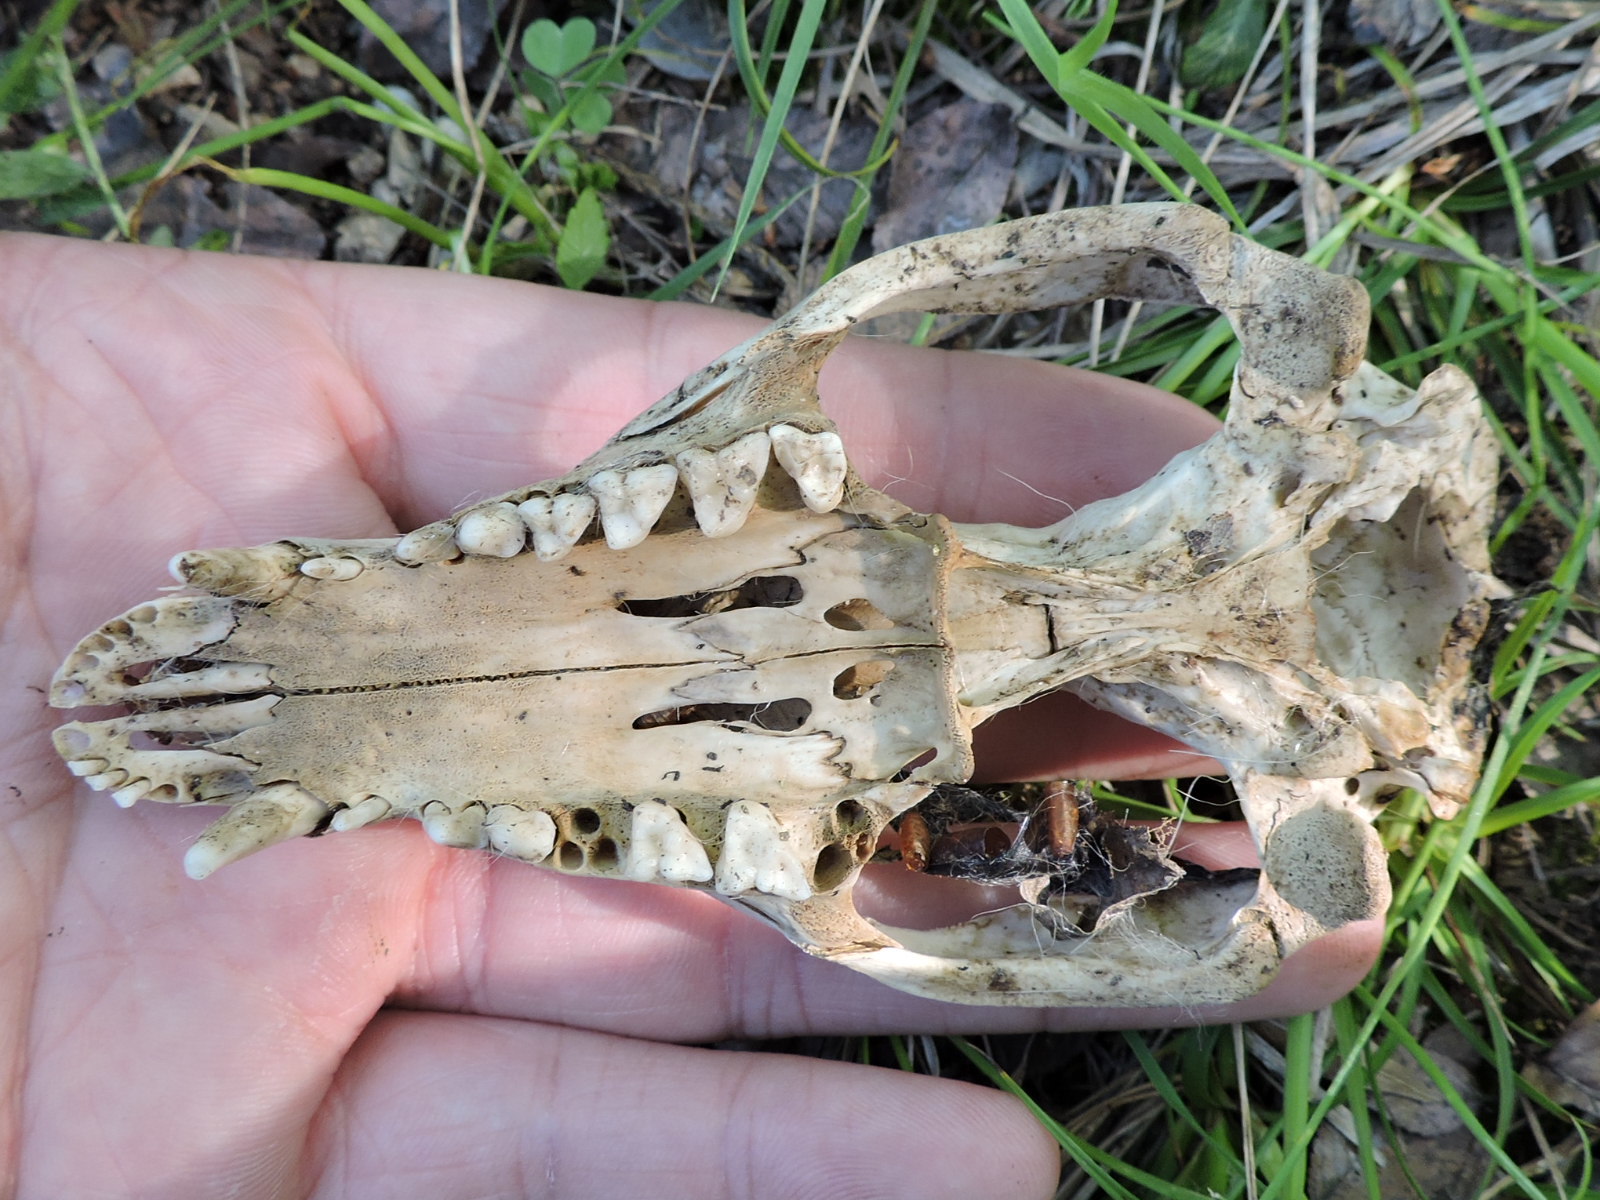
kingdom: Animalia
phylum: Chordata
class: Mammalia
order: Didelphimorphia
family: Didelphidae
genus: Didelphis
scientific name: Didelphis virginiana
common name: Virginia opossum
